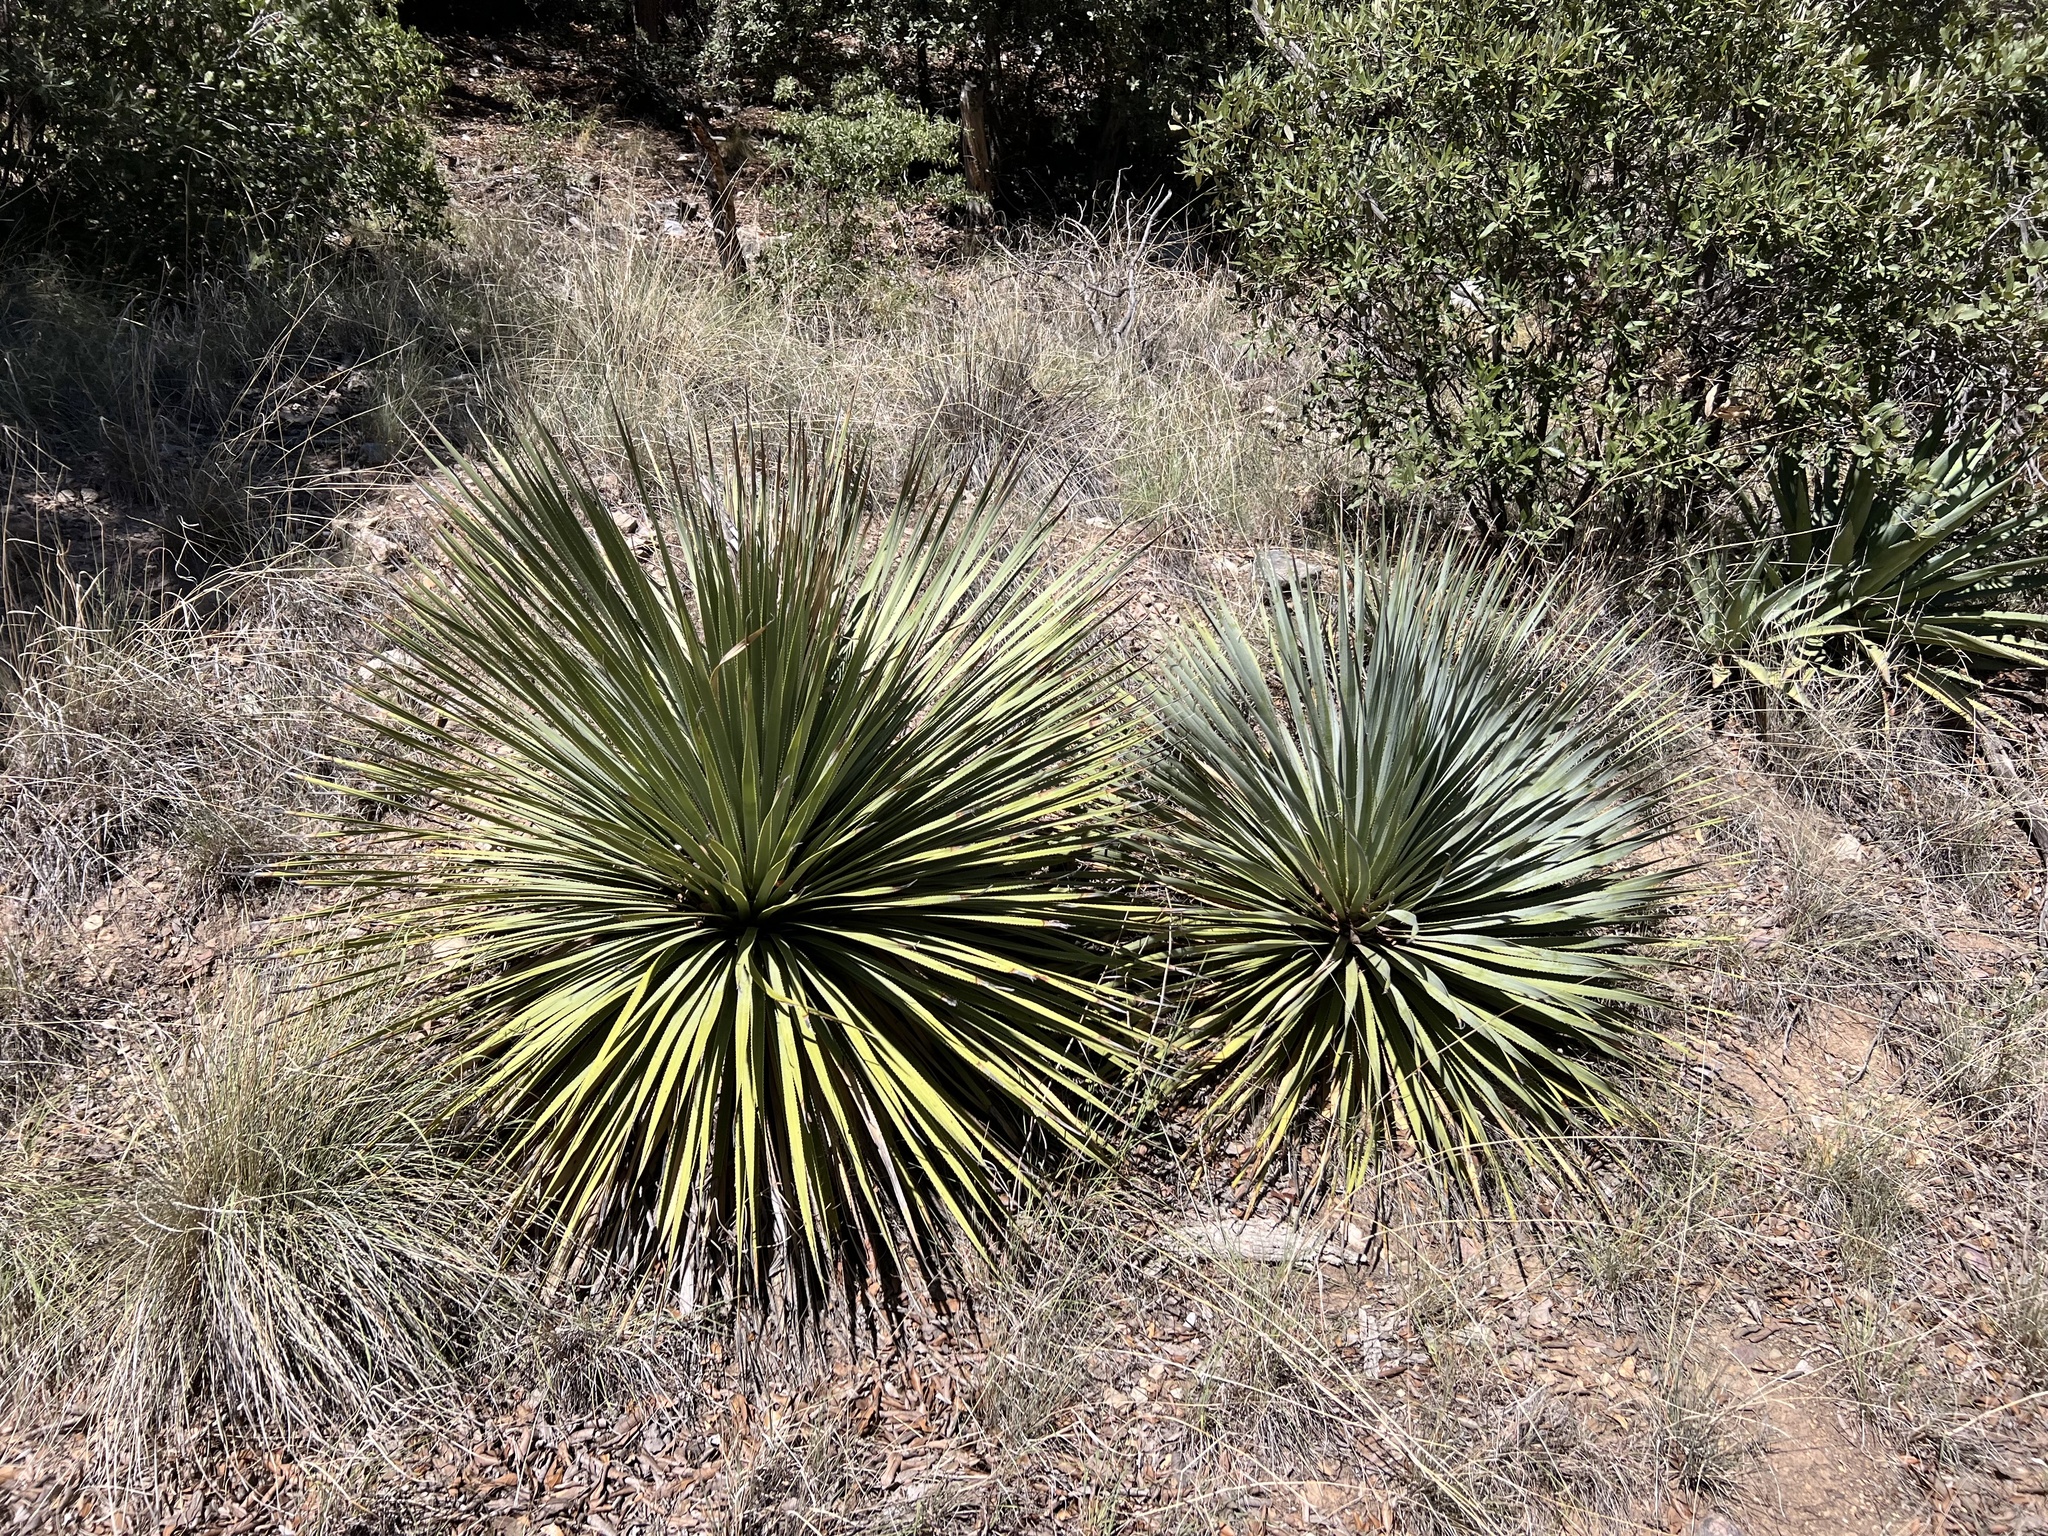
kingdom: Plantae
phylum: Tracheophyta
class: Liliopsida
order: Asparagales
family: Asparagaceae
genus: Dasylirion
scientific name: Dasylirion wheeleri
